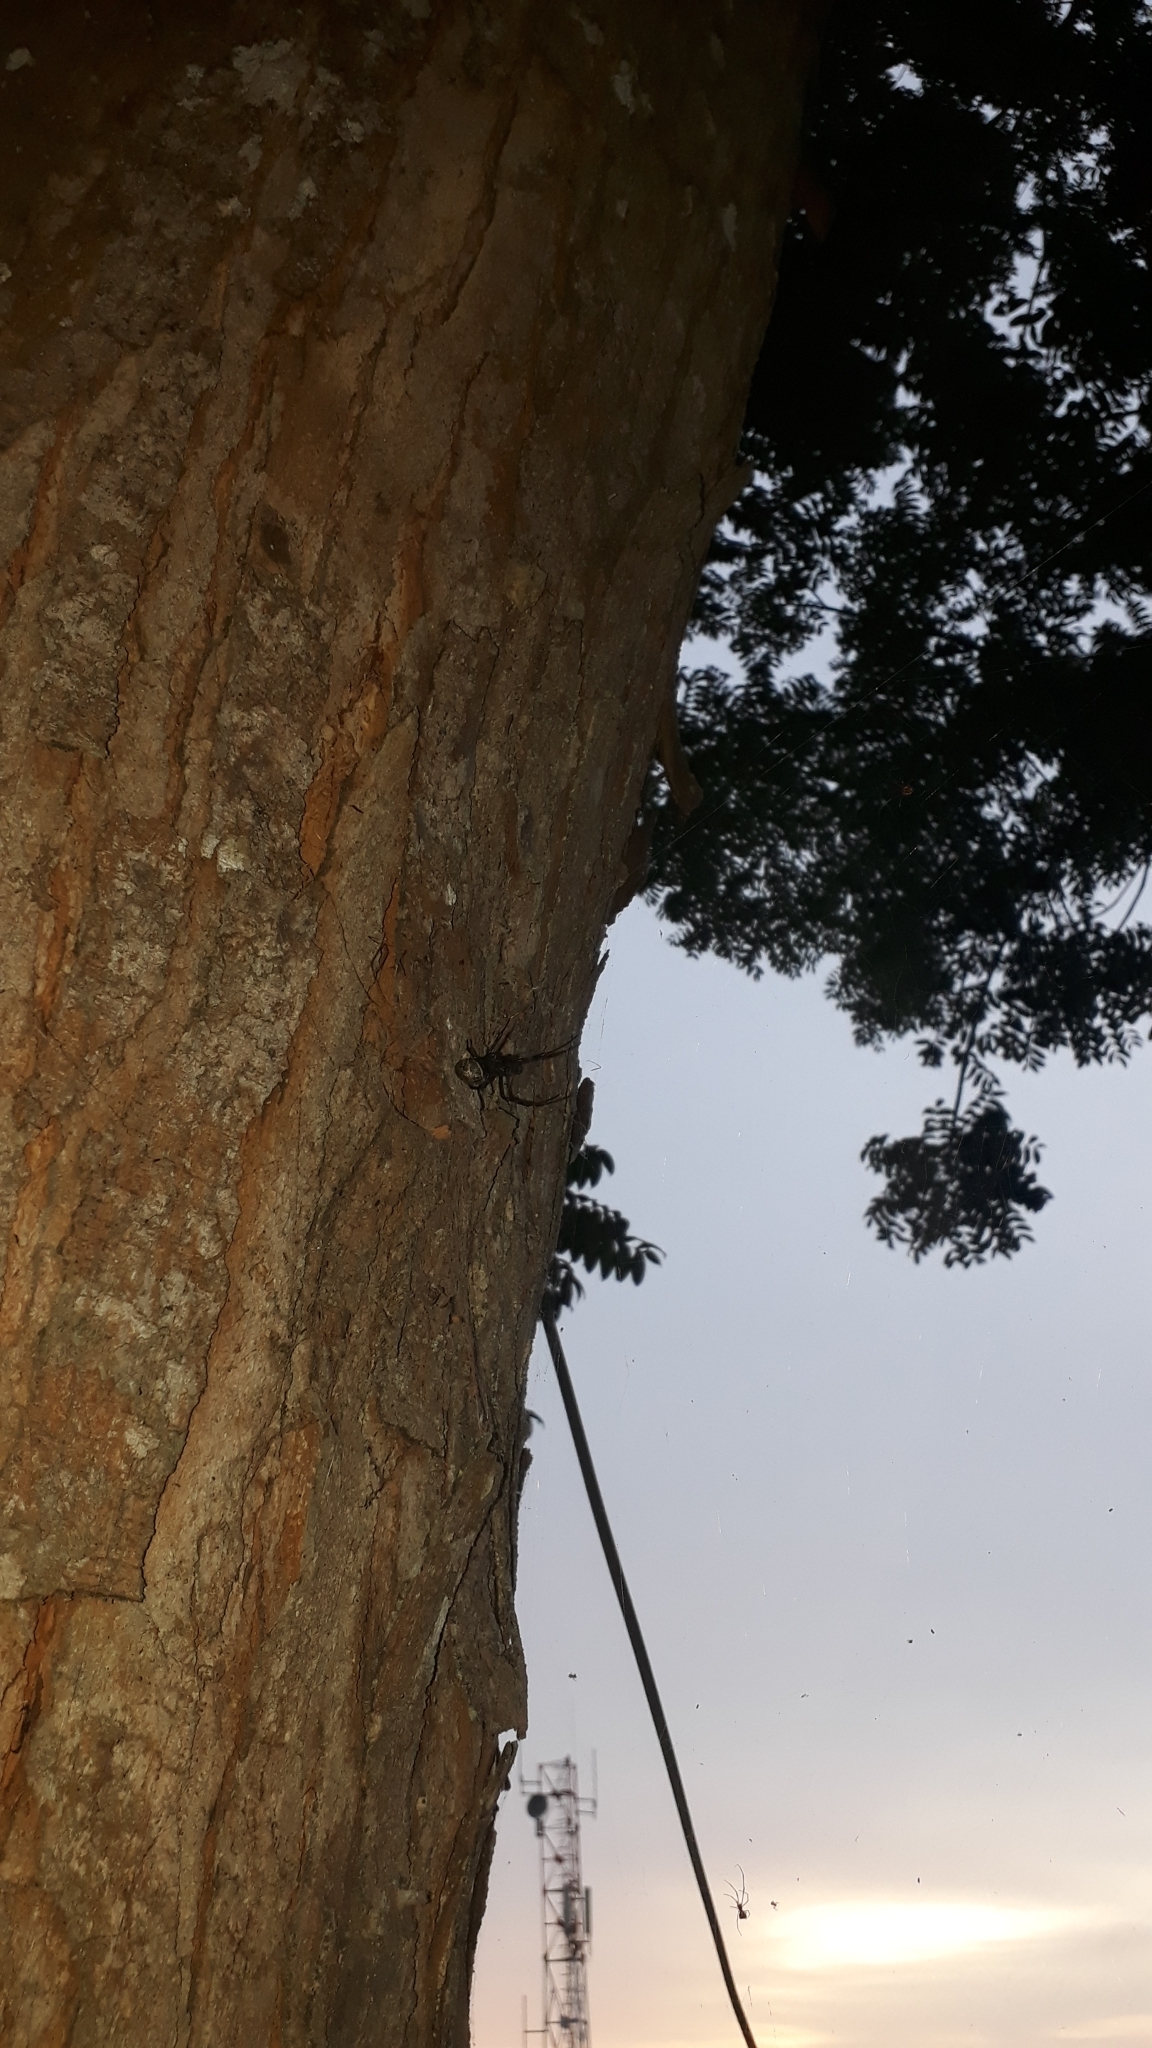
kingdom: Animalia
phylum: Arthropoda
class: Arachnida
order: Araneae
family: Araneidae
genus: Nephilengys
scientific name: Nephilengys malabarensis
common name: Asian hermit spider
